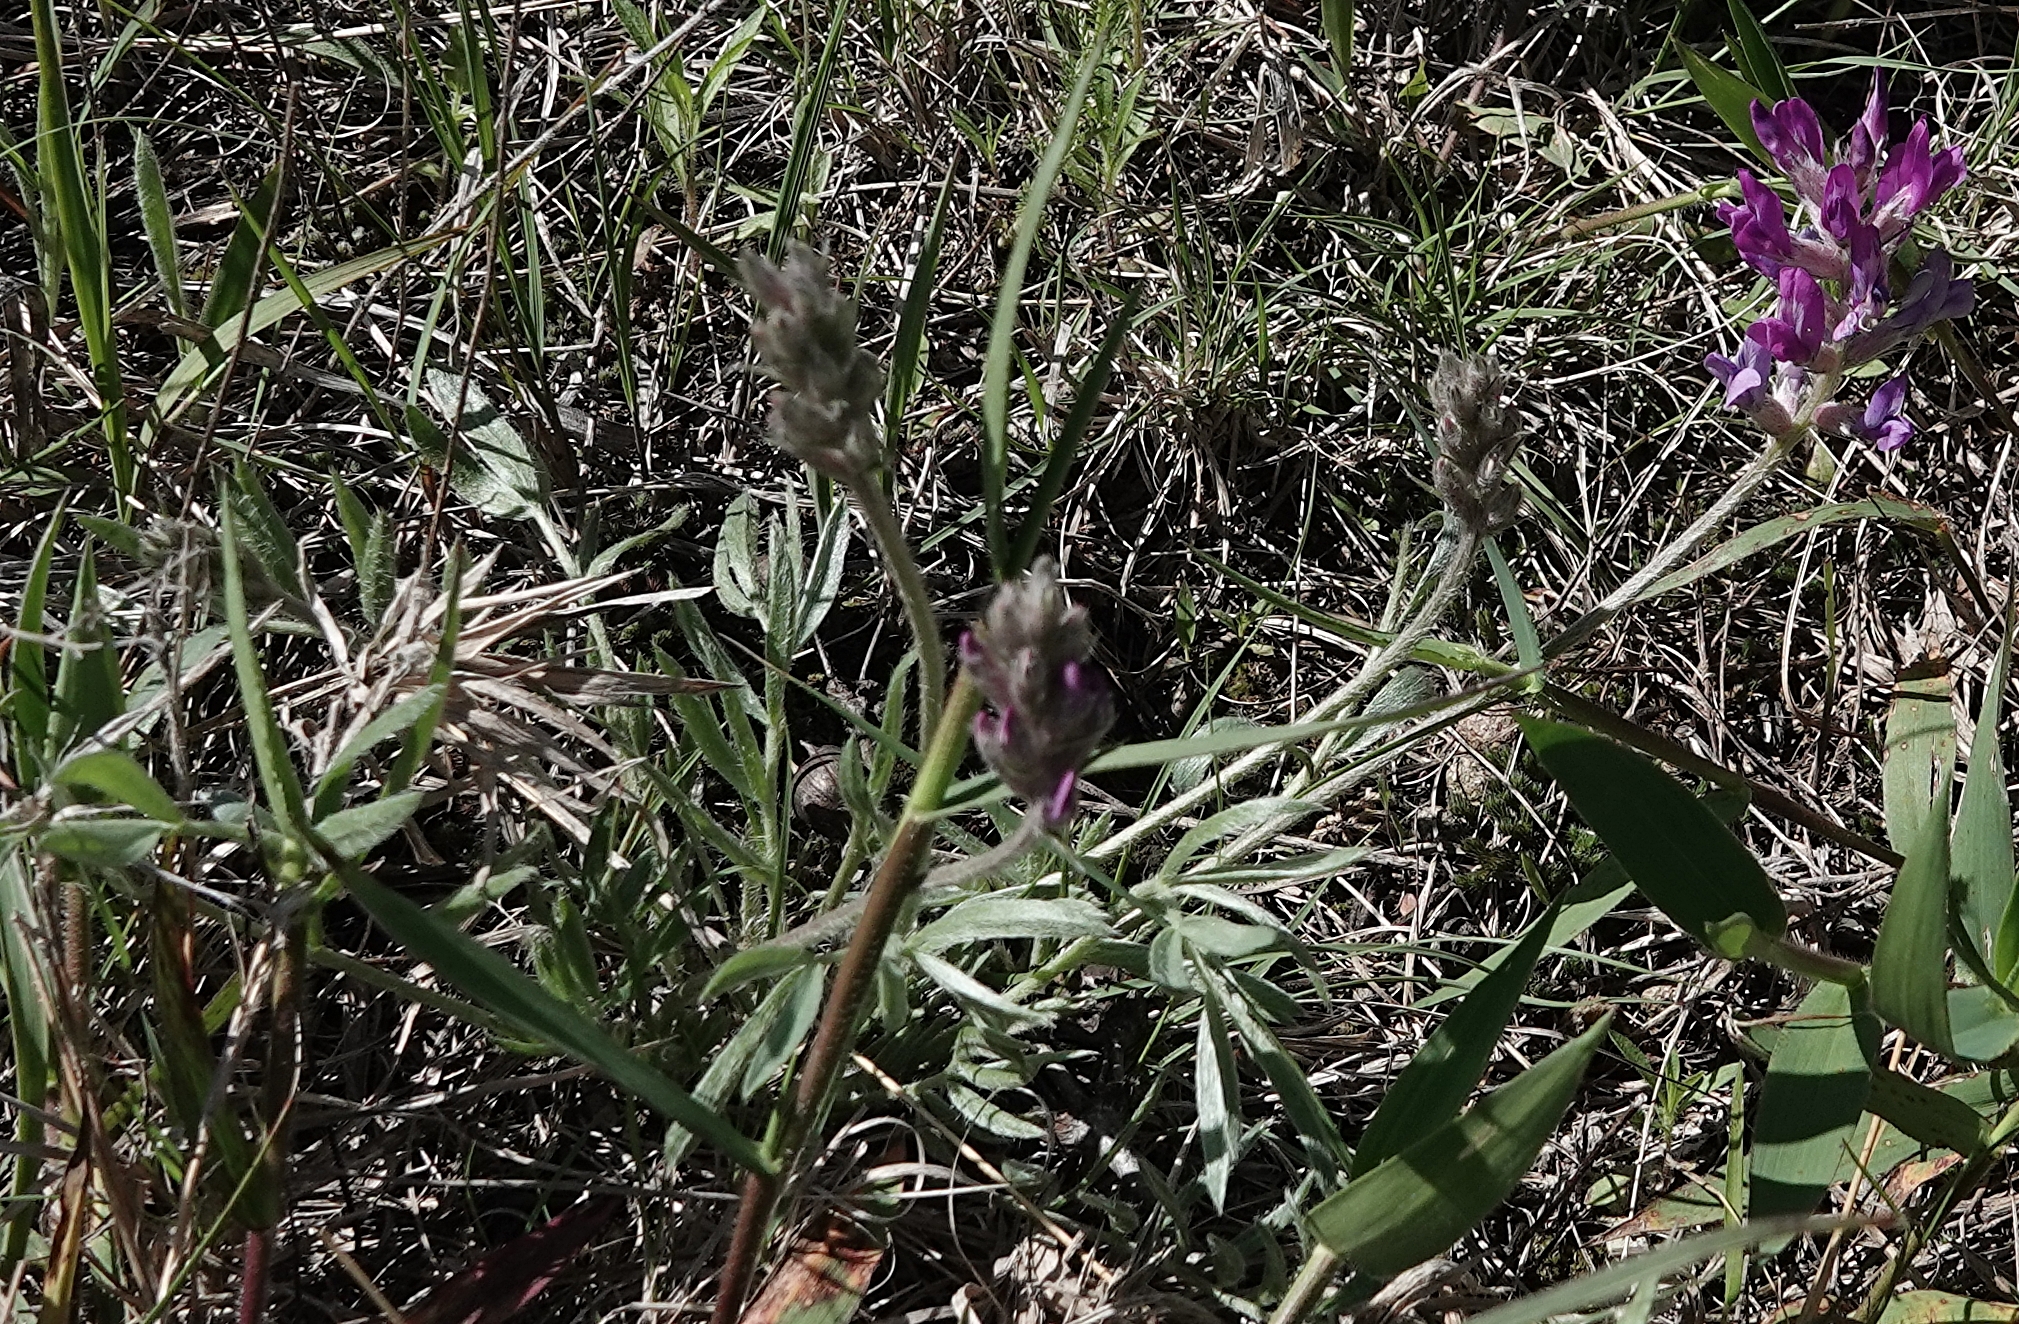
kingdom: Plantae
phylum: Tracheophyta
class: Magnoliopsida
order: Fabales
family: Fabaceae
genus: Oxytropis
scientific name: Oxytropis lambertii
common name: Purple locoweed
